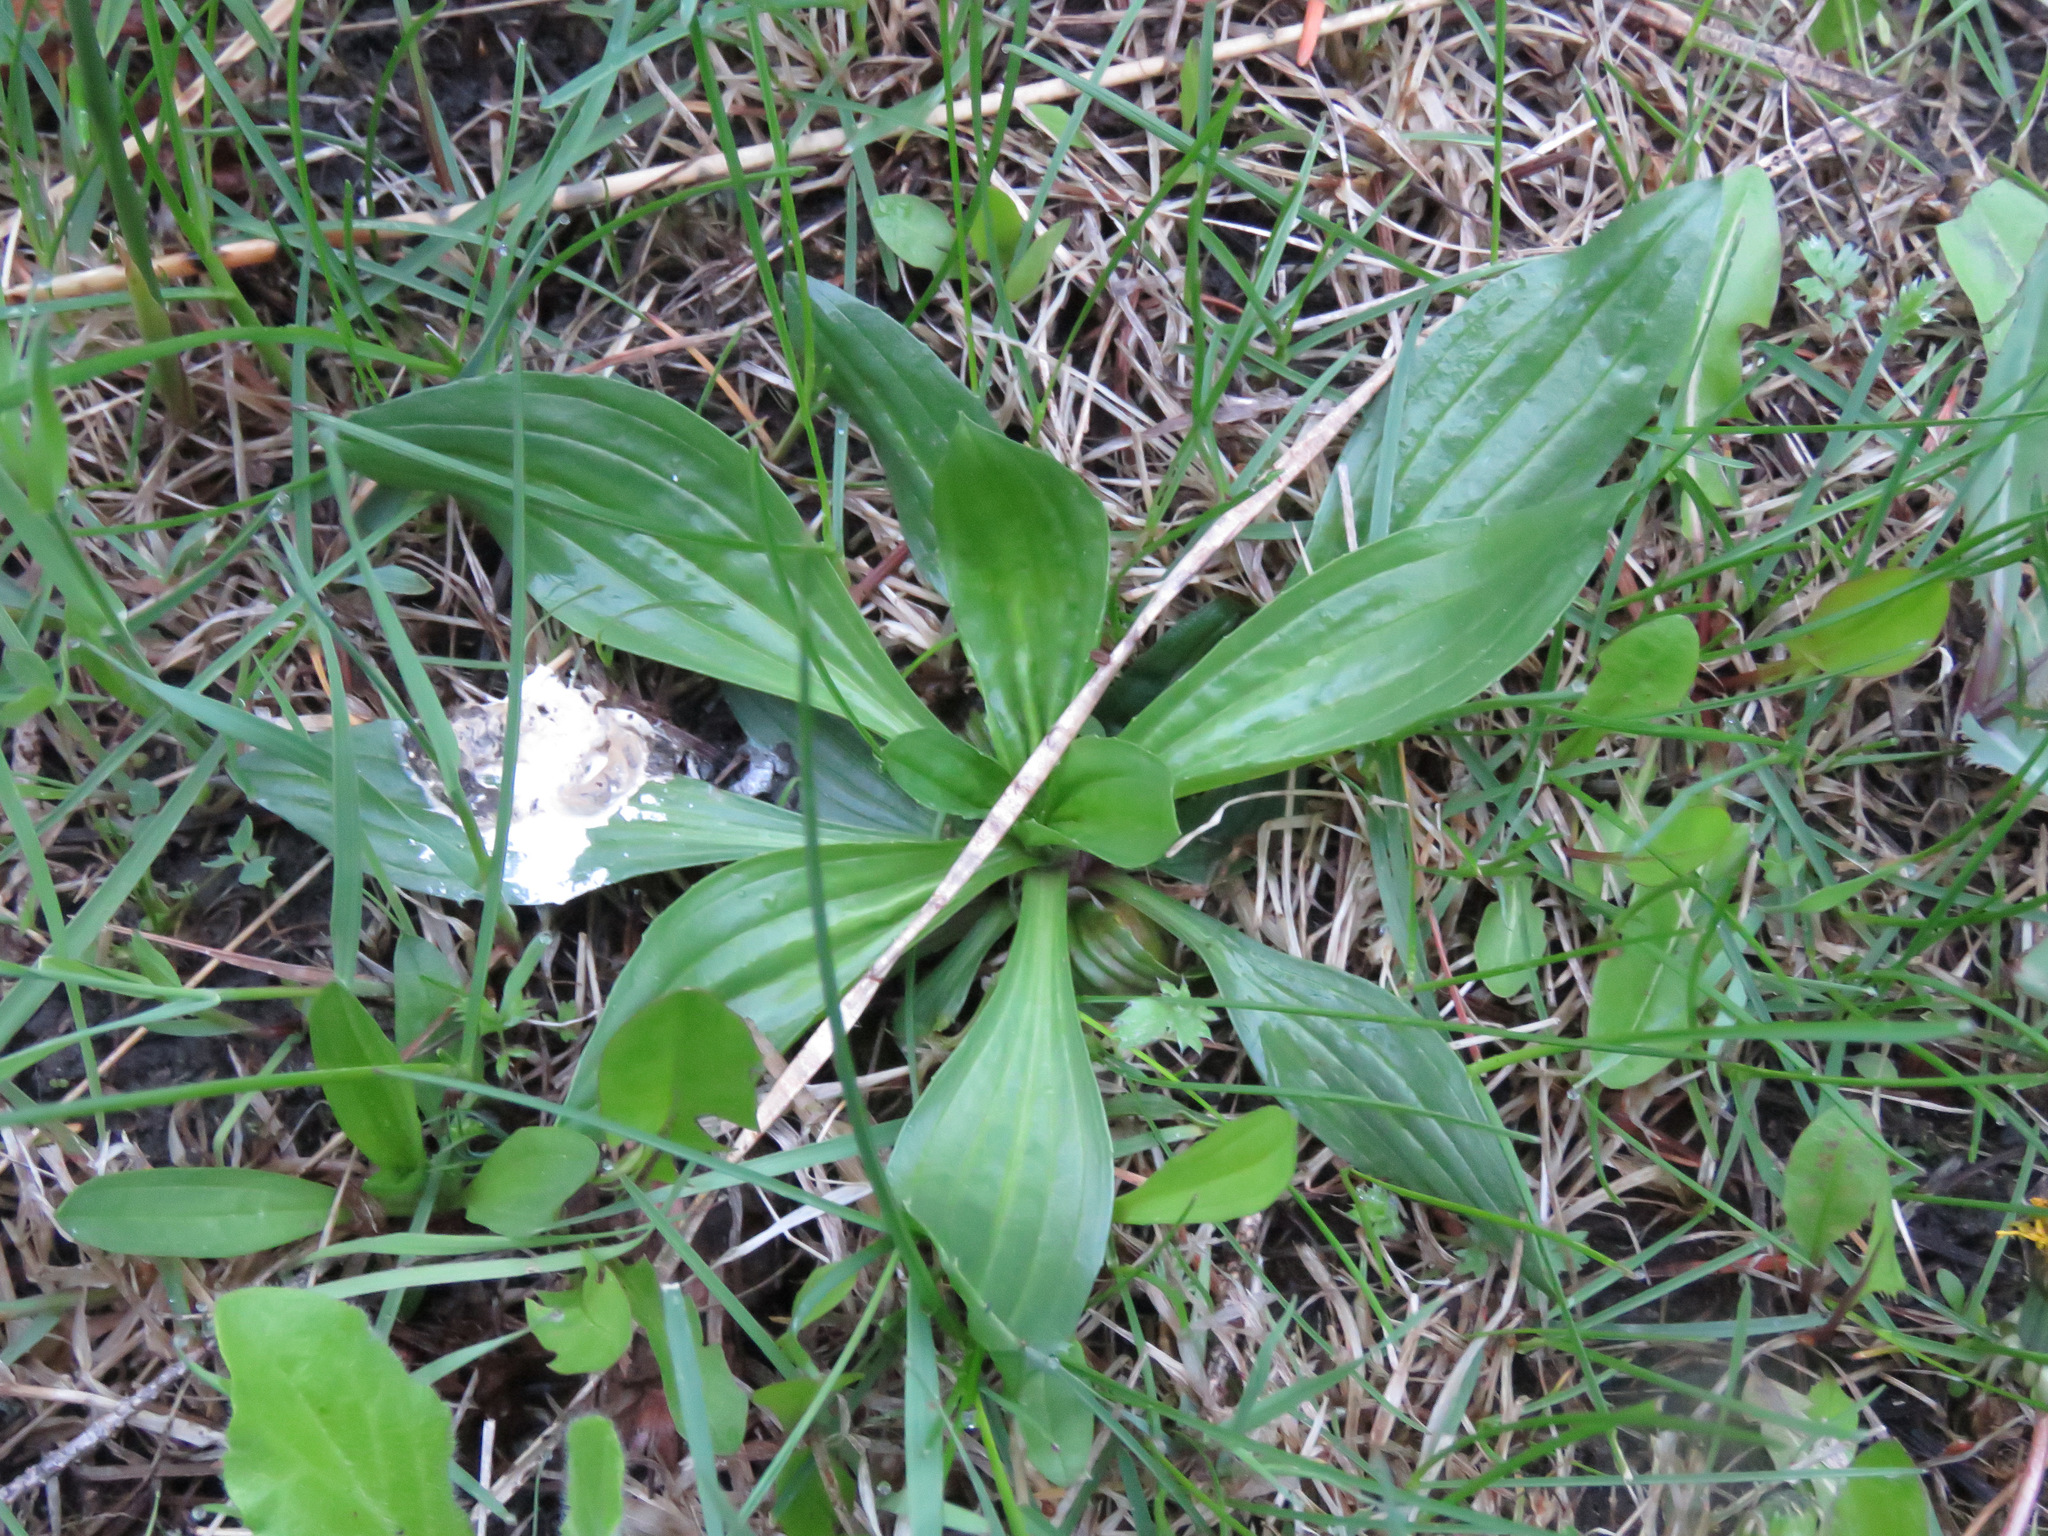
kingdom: Plantae
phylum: Tracheophyta
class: Magnoliopsida
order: Lamiales
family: Plantaginaceae
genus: Plantago
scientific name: Plantago lanceolata
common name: Ribwort plantain
